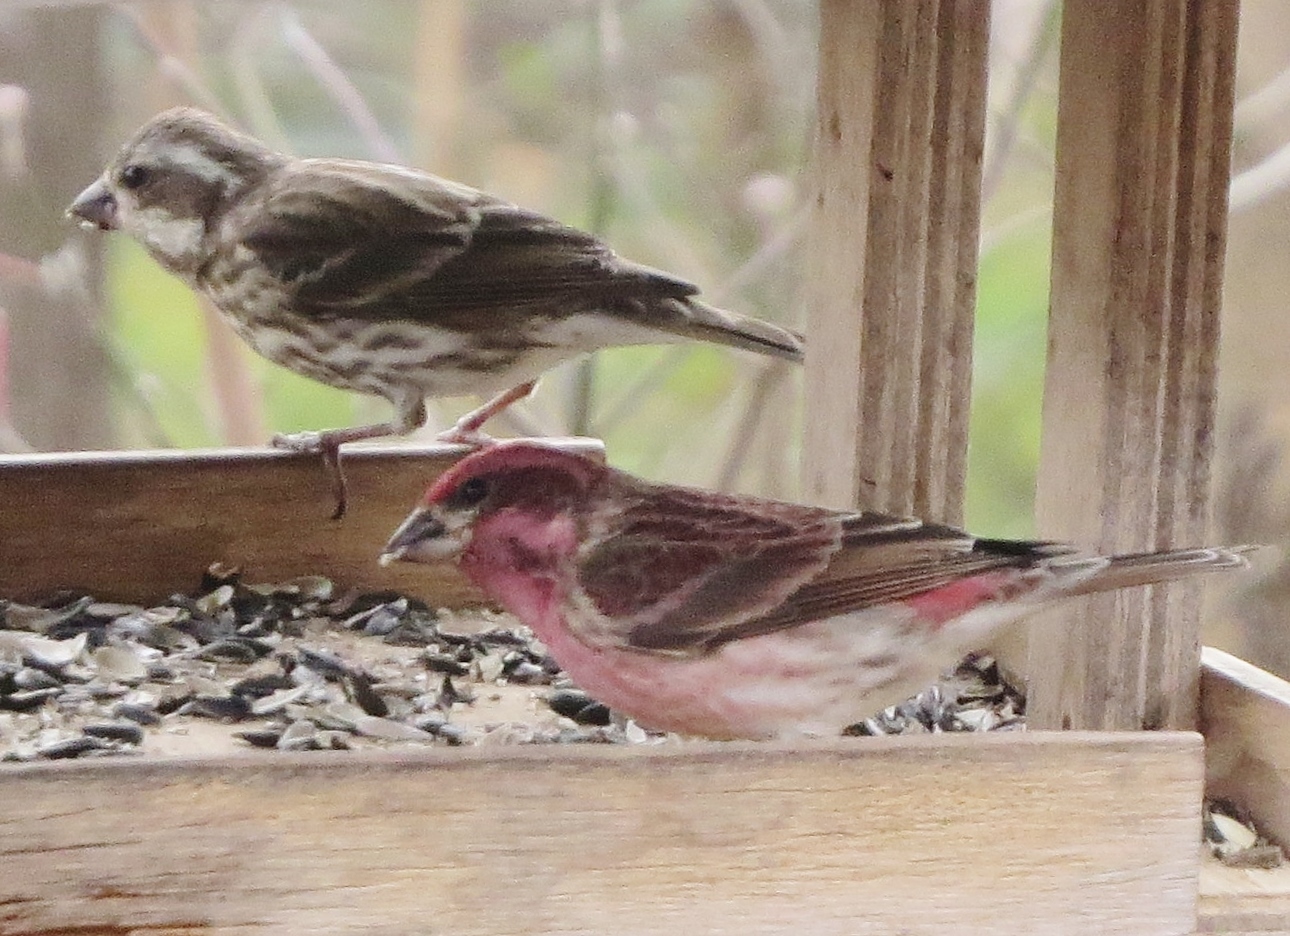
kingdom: Animalia
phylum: Chordata
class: Aves
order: Passeriformes
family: Fringillidae
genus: Haemorhous
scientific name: Haemorhous purpureus
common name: Purple finch
